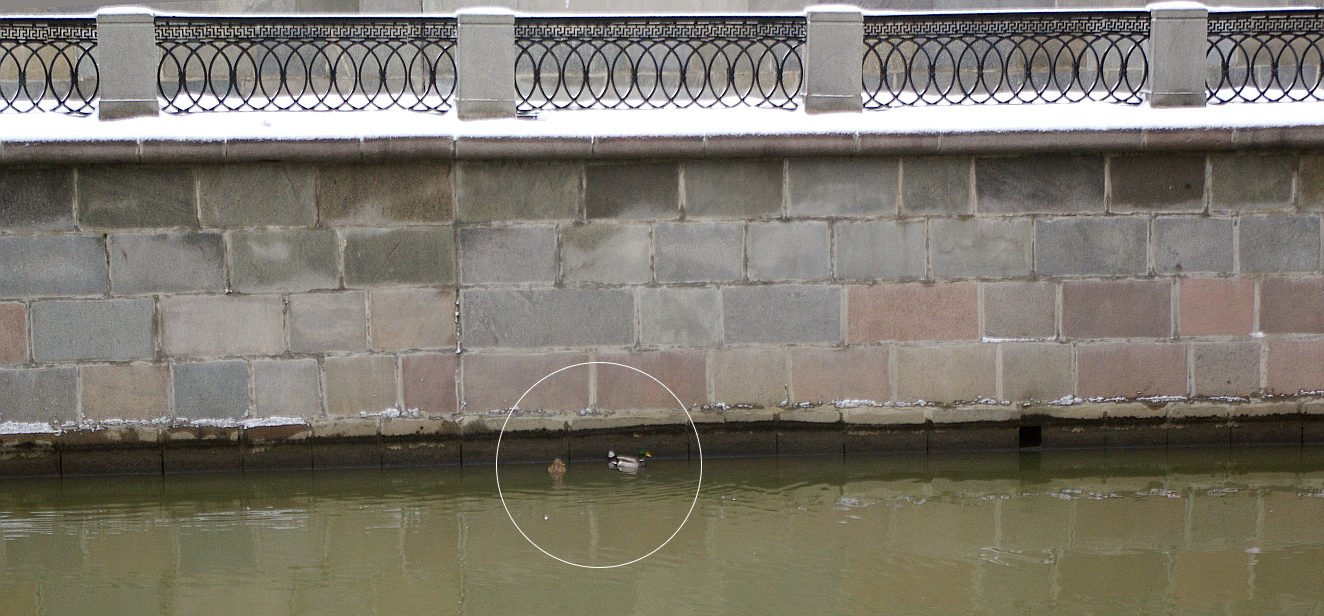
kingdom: Animalia
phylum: Chordata
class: Aves
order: Anseriformes
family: Anatidae
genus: Anas
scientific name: Anas platyrhynchos
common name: Mallard
